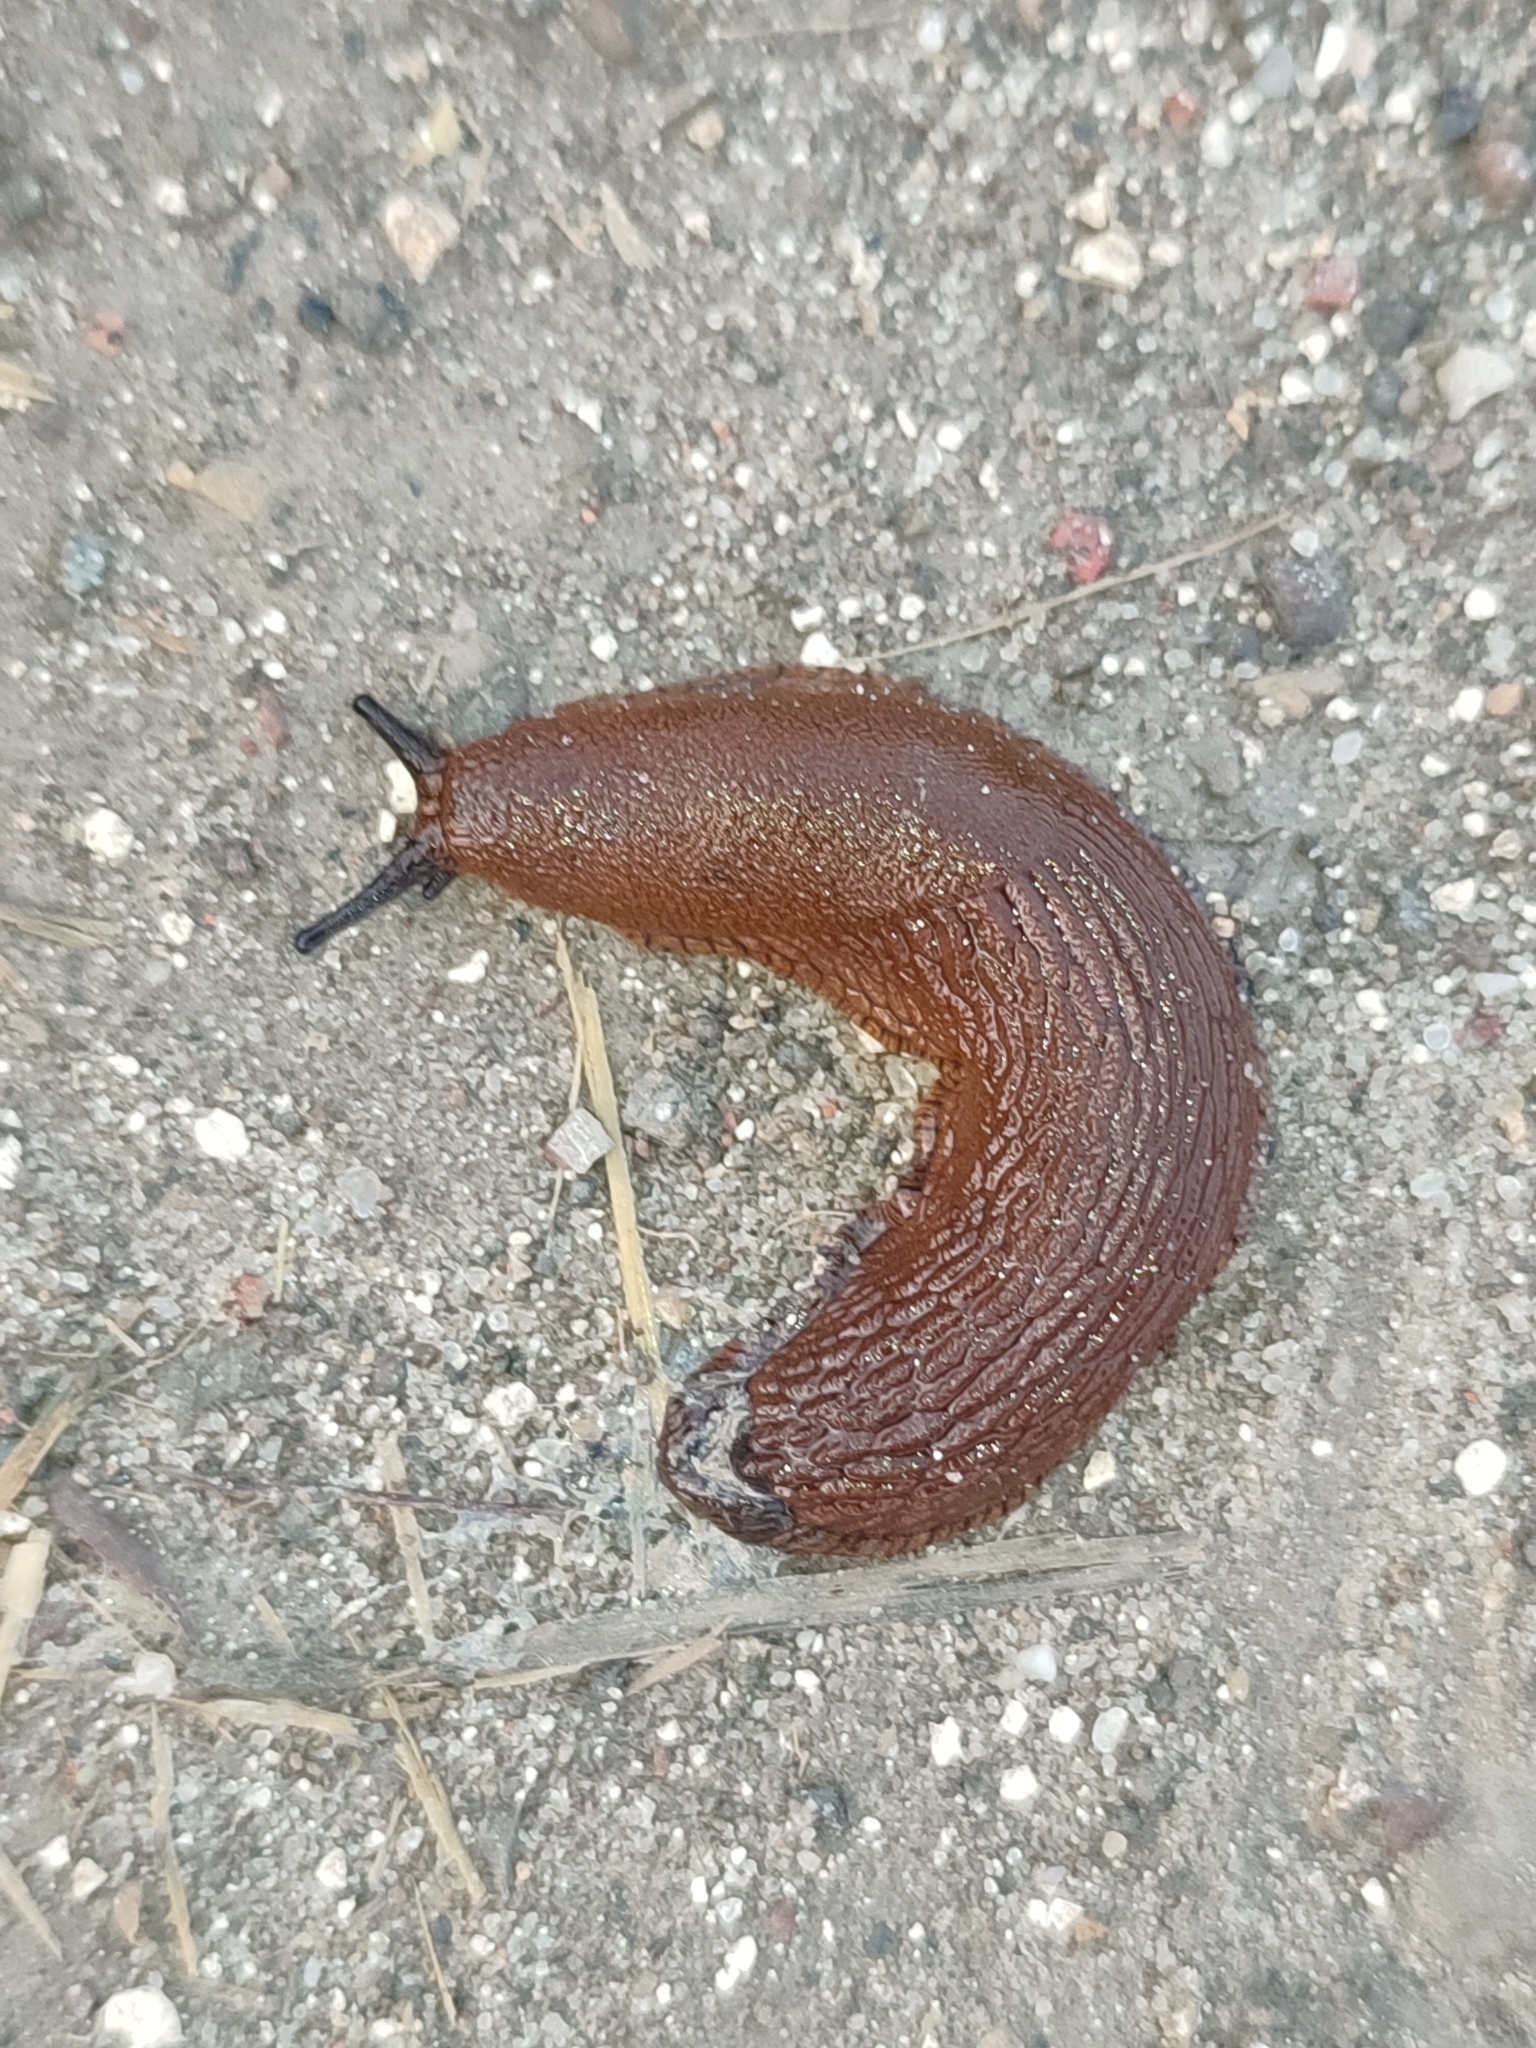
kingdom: Animalia
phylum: Mollusca
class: Gastropoda
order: Stylommatophora
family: Arionidae
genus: Arion
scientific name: Arion vulgaris
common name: Lusitanian slug
